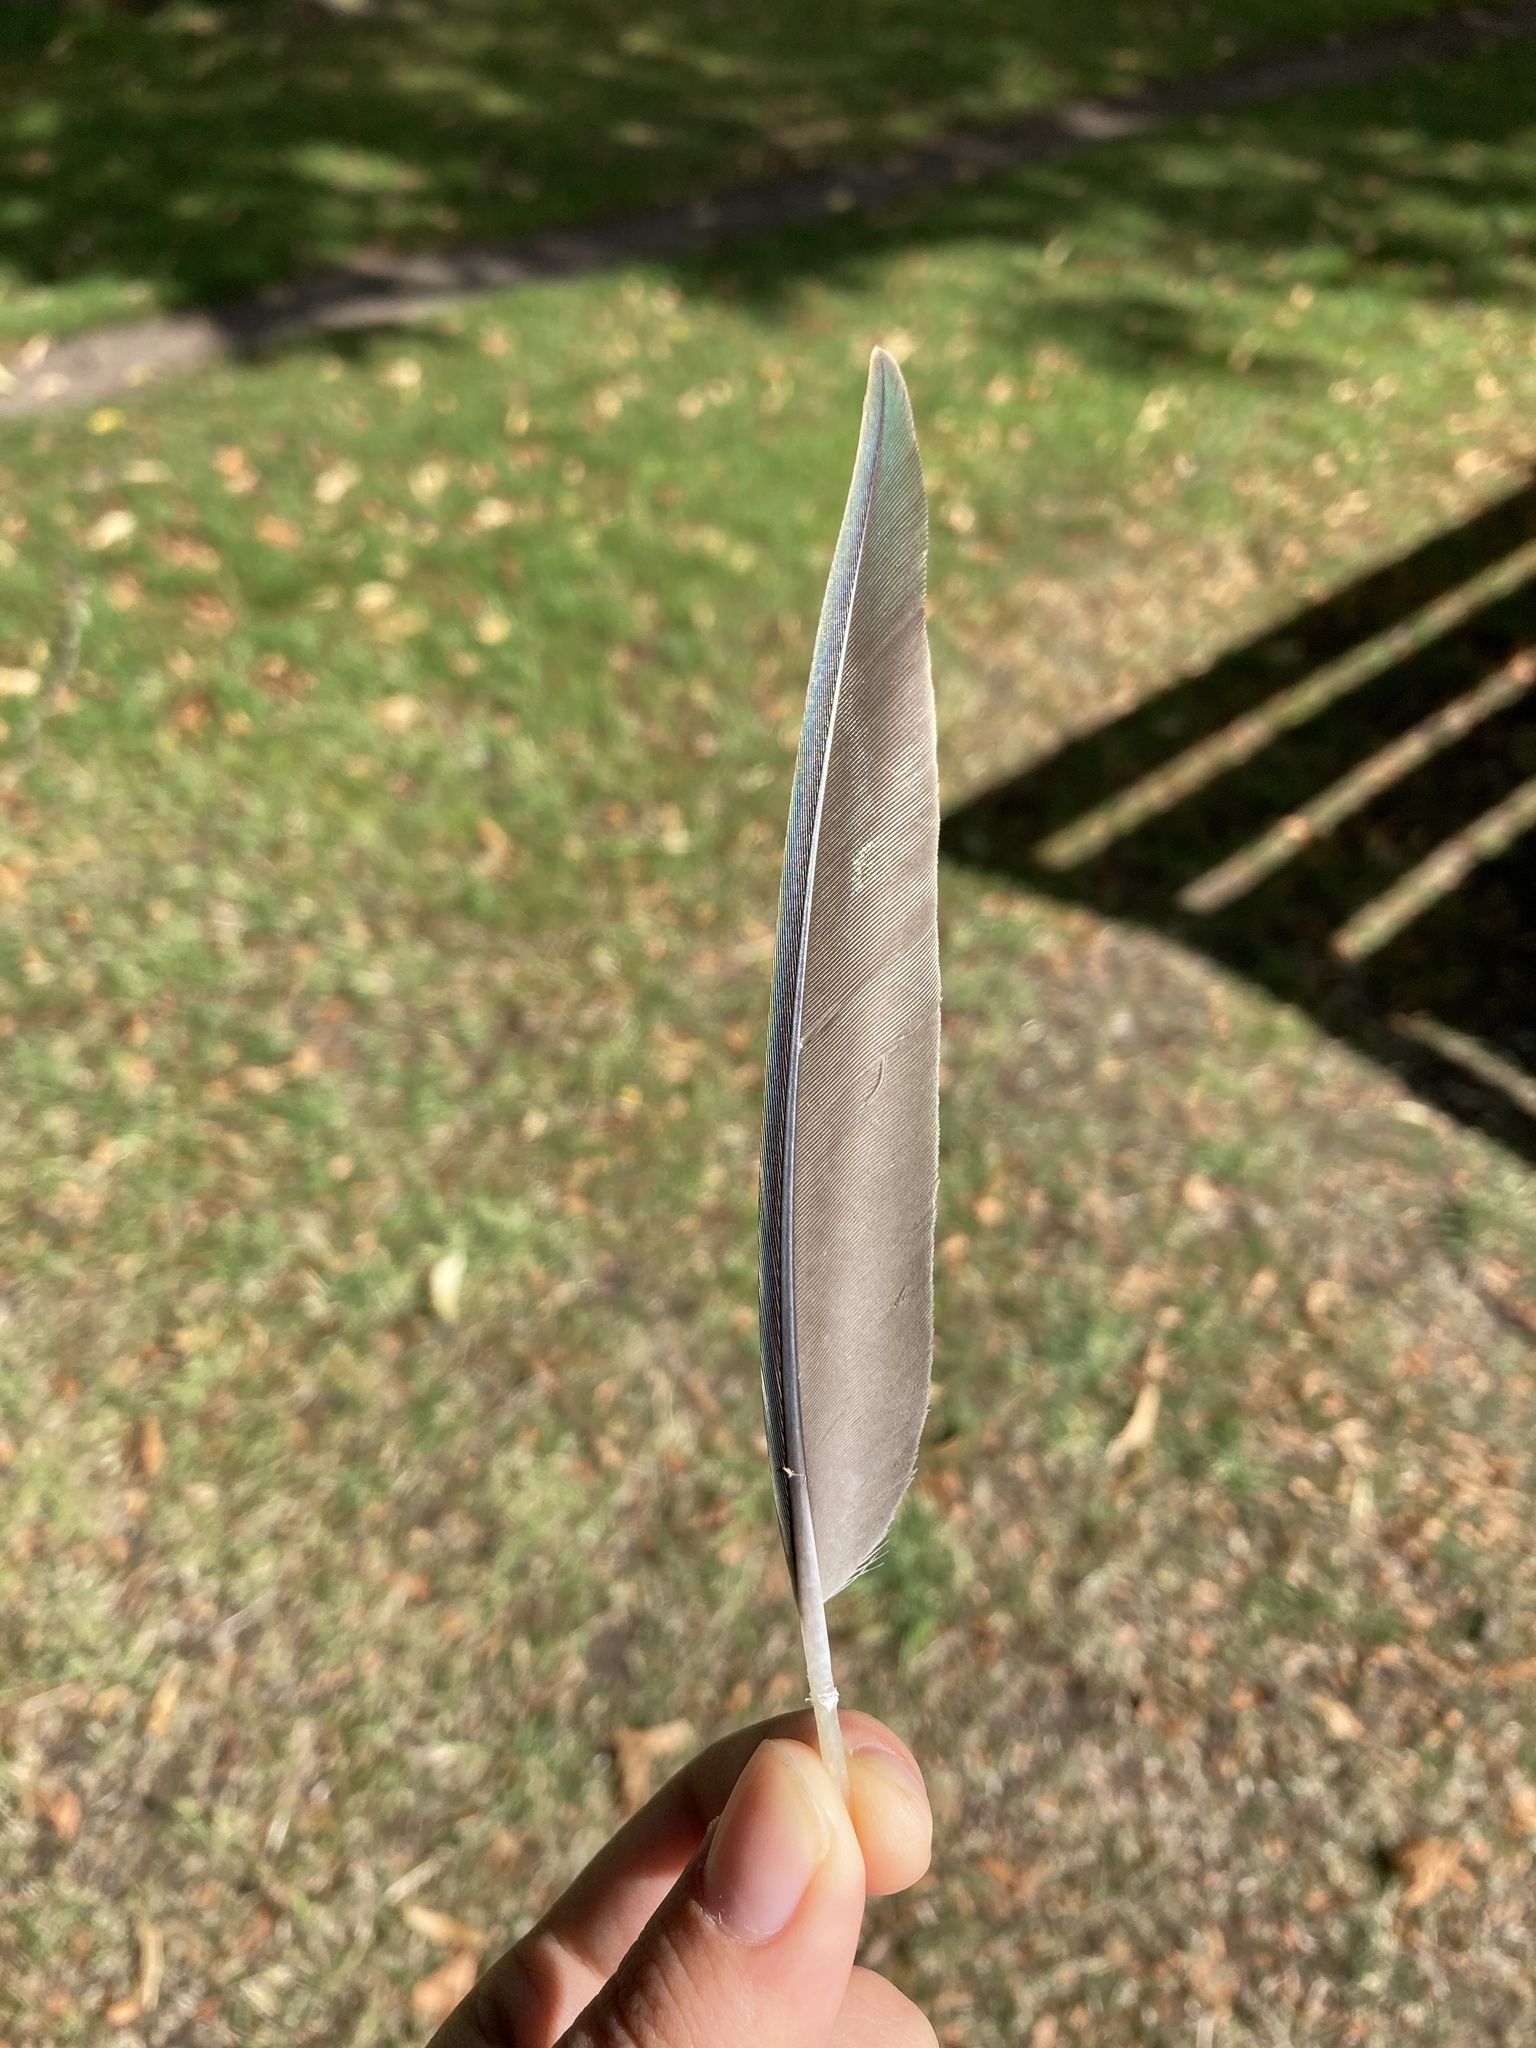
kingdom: Animalia
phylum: Chordata
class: Aves
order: Psittaciformes
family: Psittacidae
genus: Psittacula
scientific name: Psittacula krameri
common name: Rose-ringed parakeet
